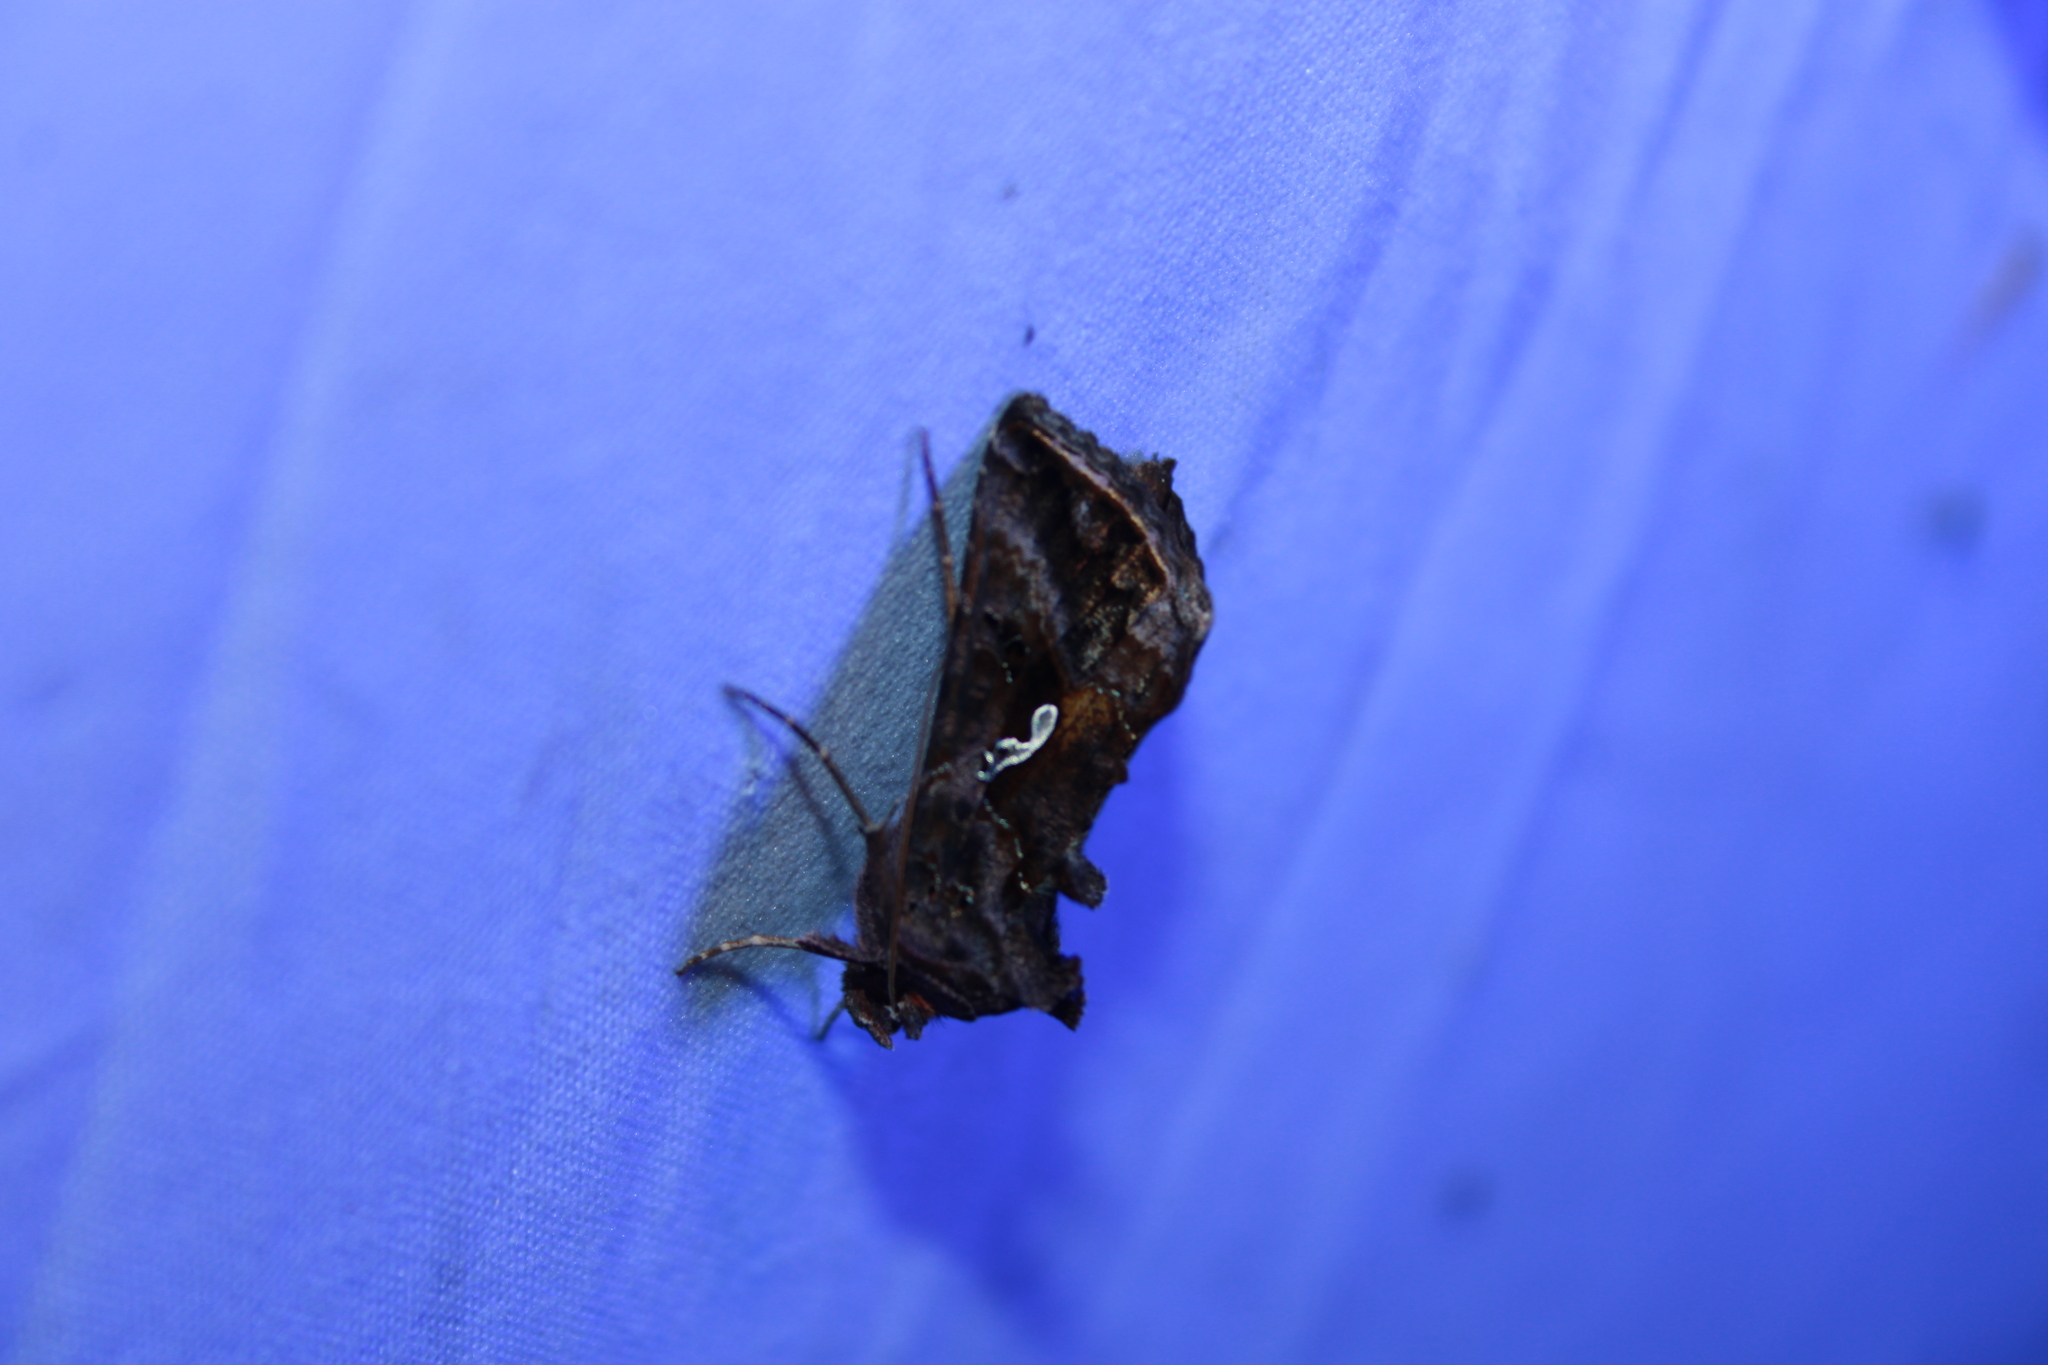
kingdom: Animalia
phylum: Arthropoda
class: Insecta
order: Lepidoptera
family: Noctuidae
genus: Autographa
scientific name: Autographa precationis
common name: Common looper moth
